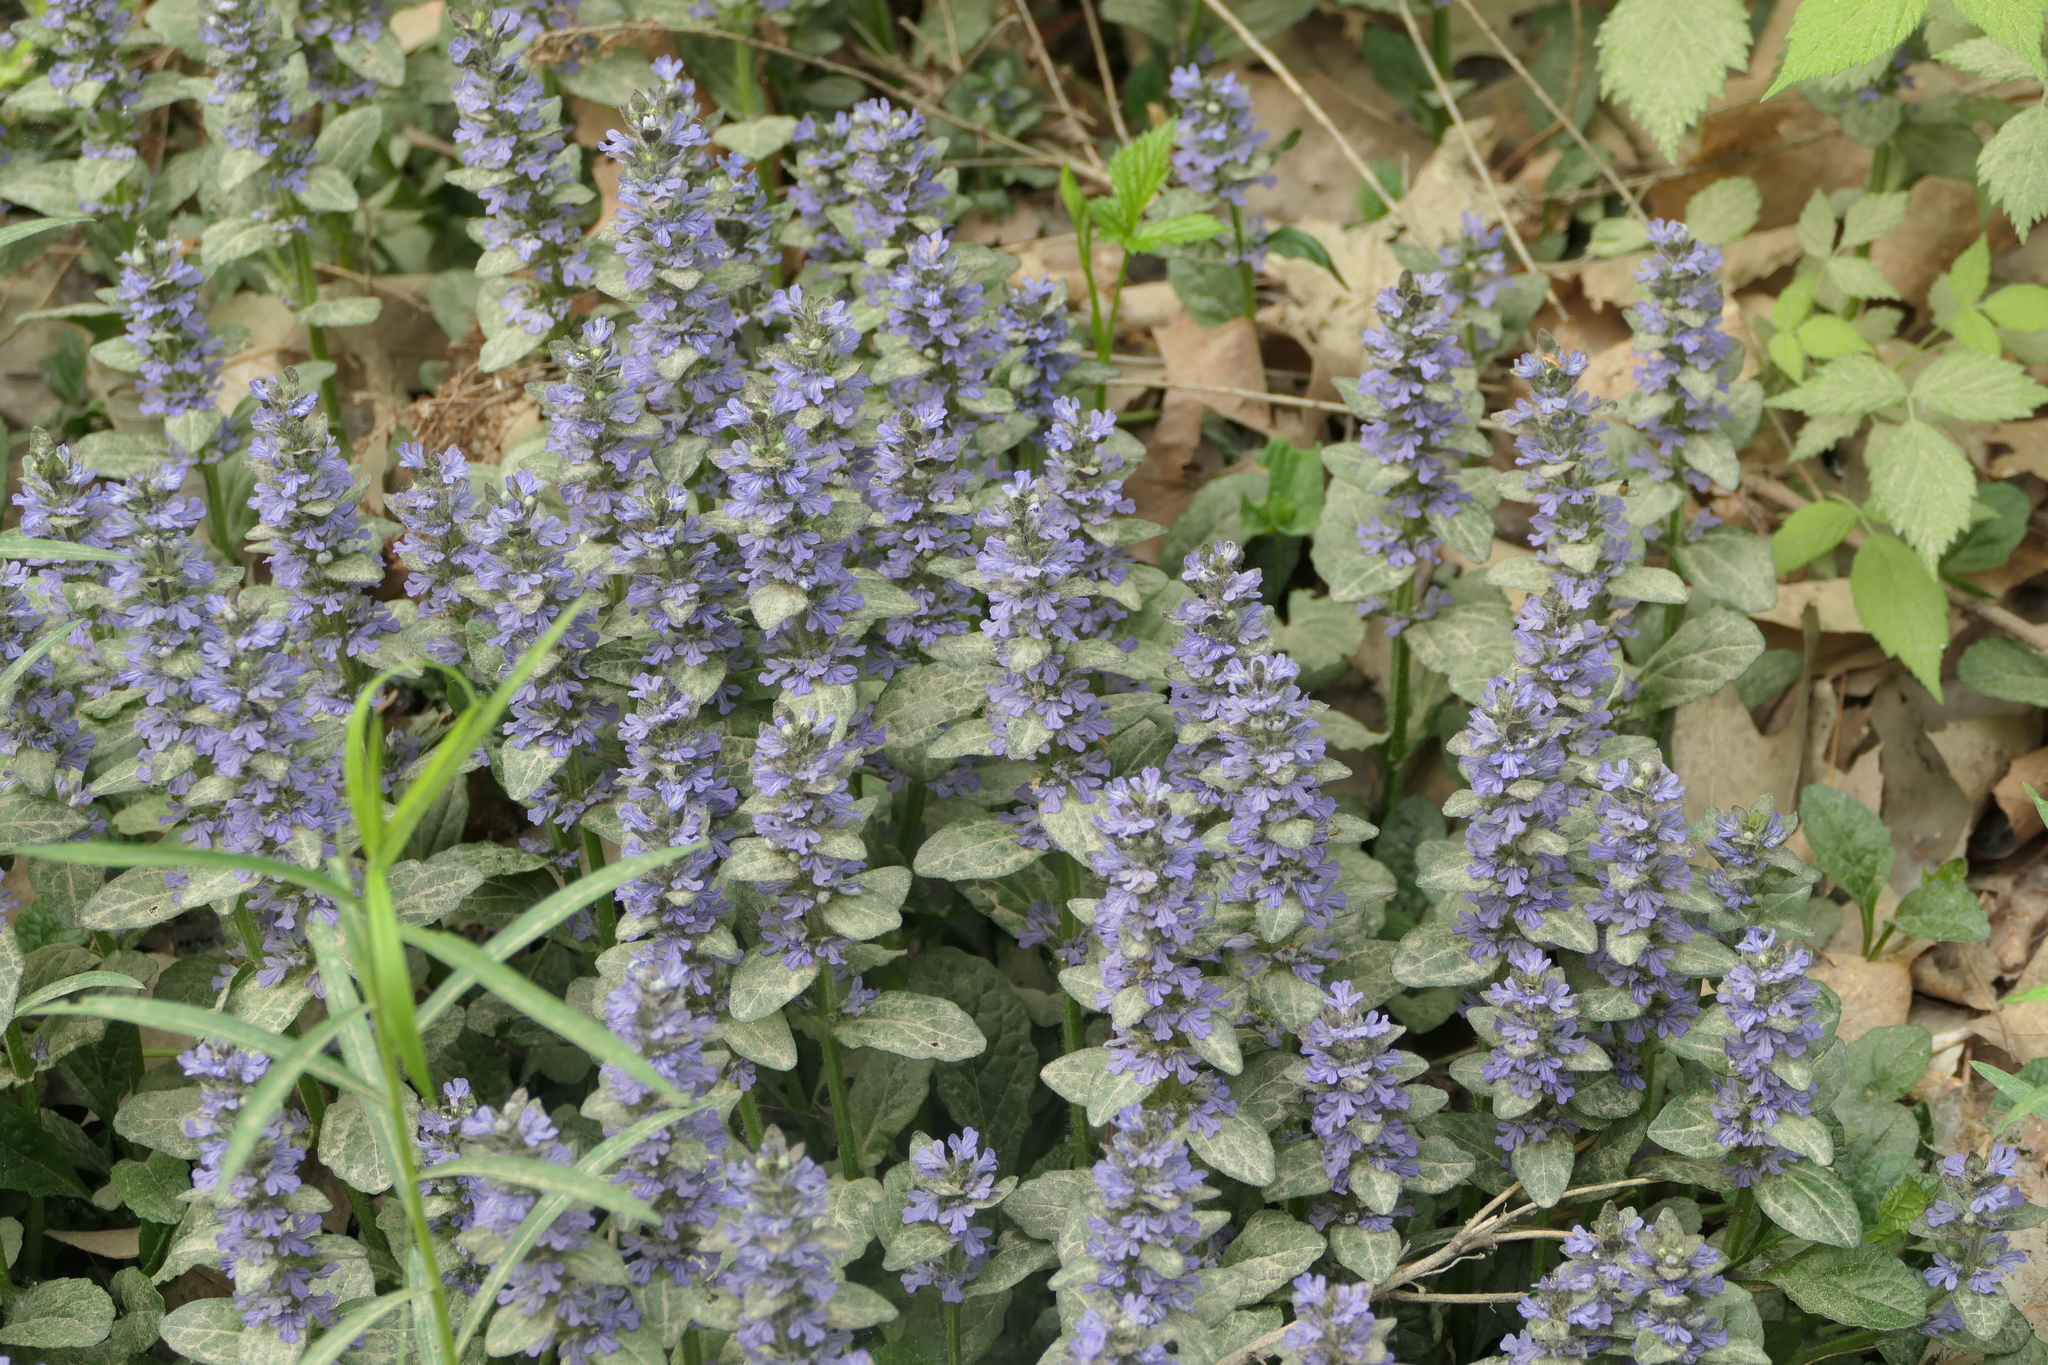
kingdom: Plantae
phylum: Tracheophyta
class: Magnoliopsida
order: Lamiales
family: Lamiaceae
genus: Ajuga
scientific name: Ajuga reptans
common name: Bugle
